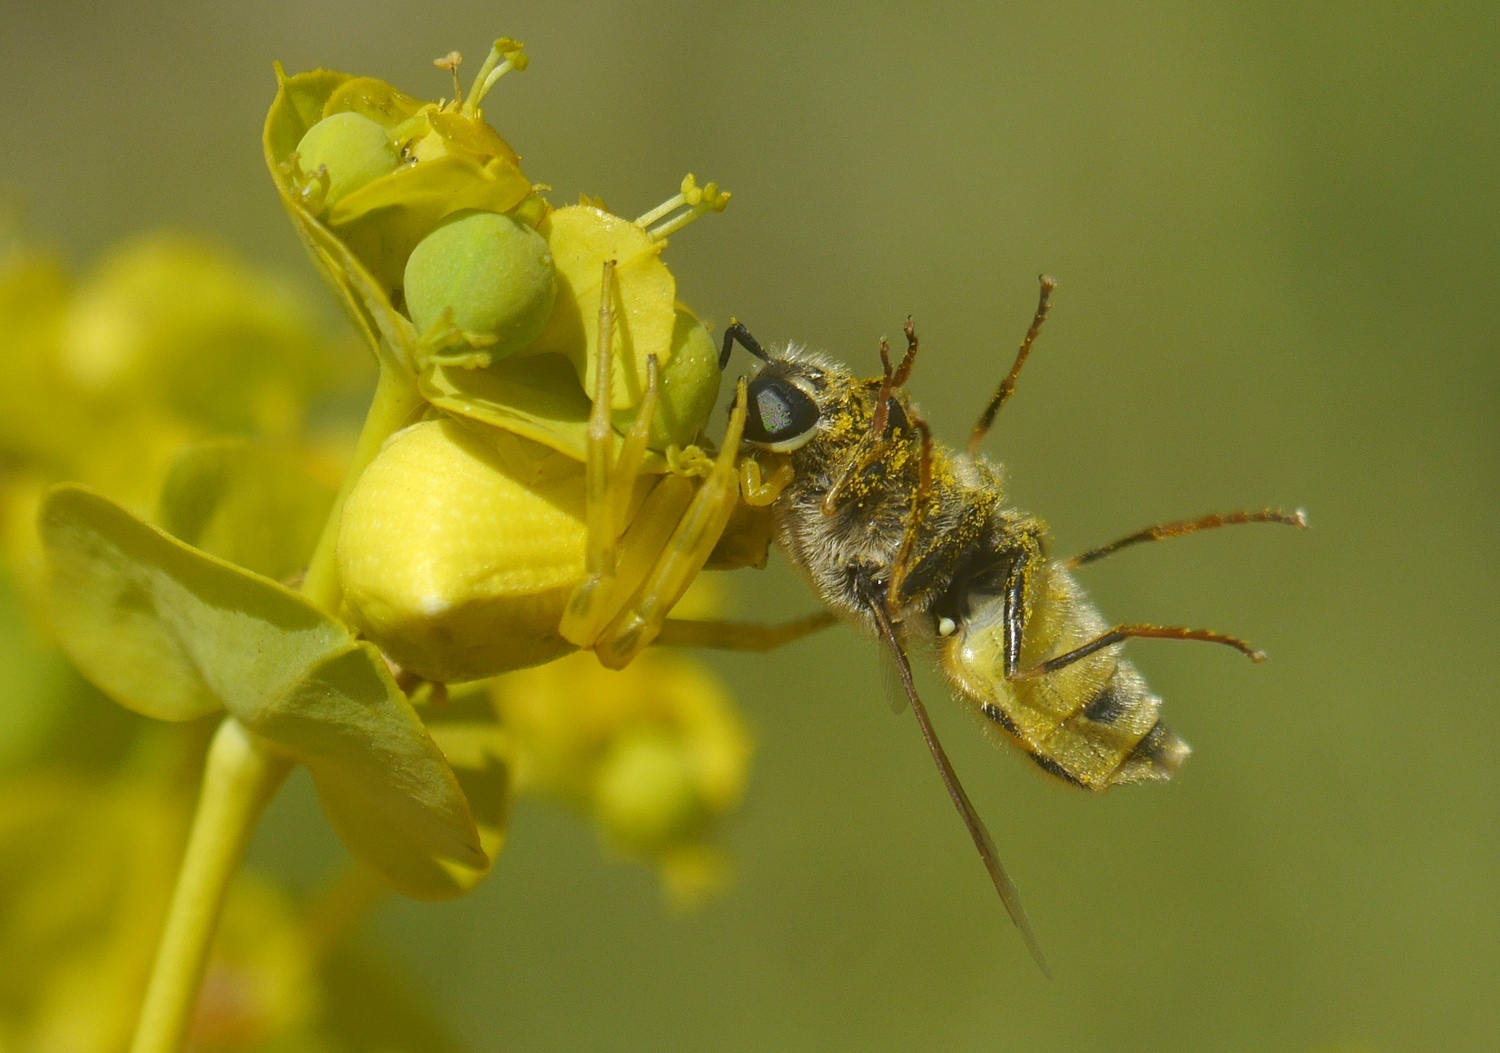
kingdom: Animalia
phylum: Arthropoda
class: Arachnida
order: Araneae
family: Thomisidae
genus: Thomisus
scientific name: Thomisus onustus
